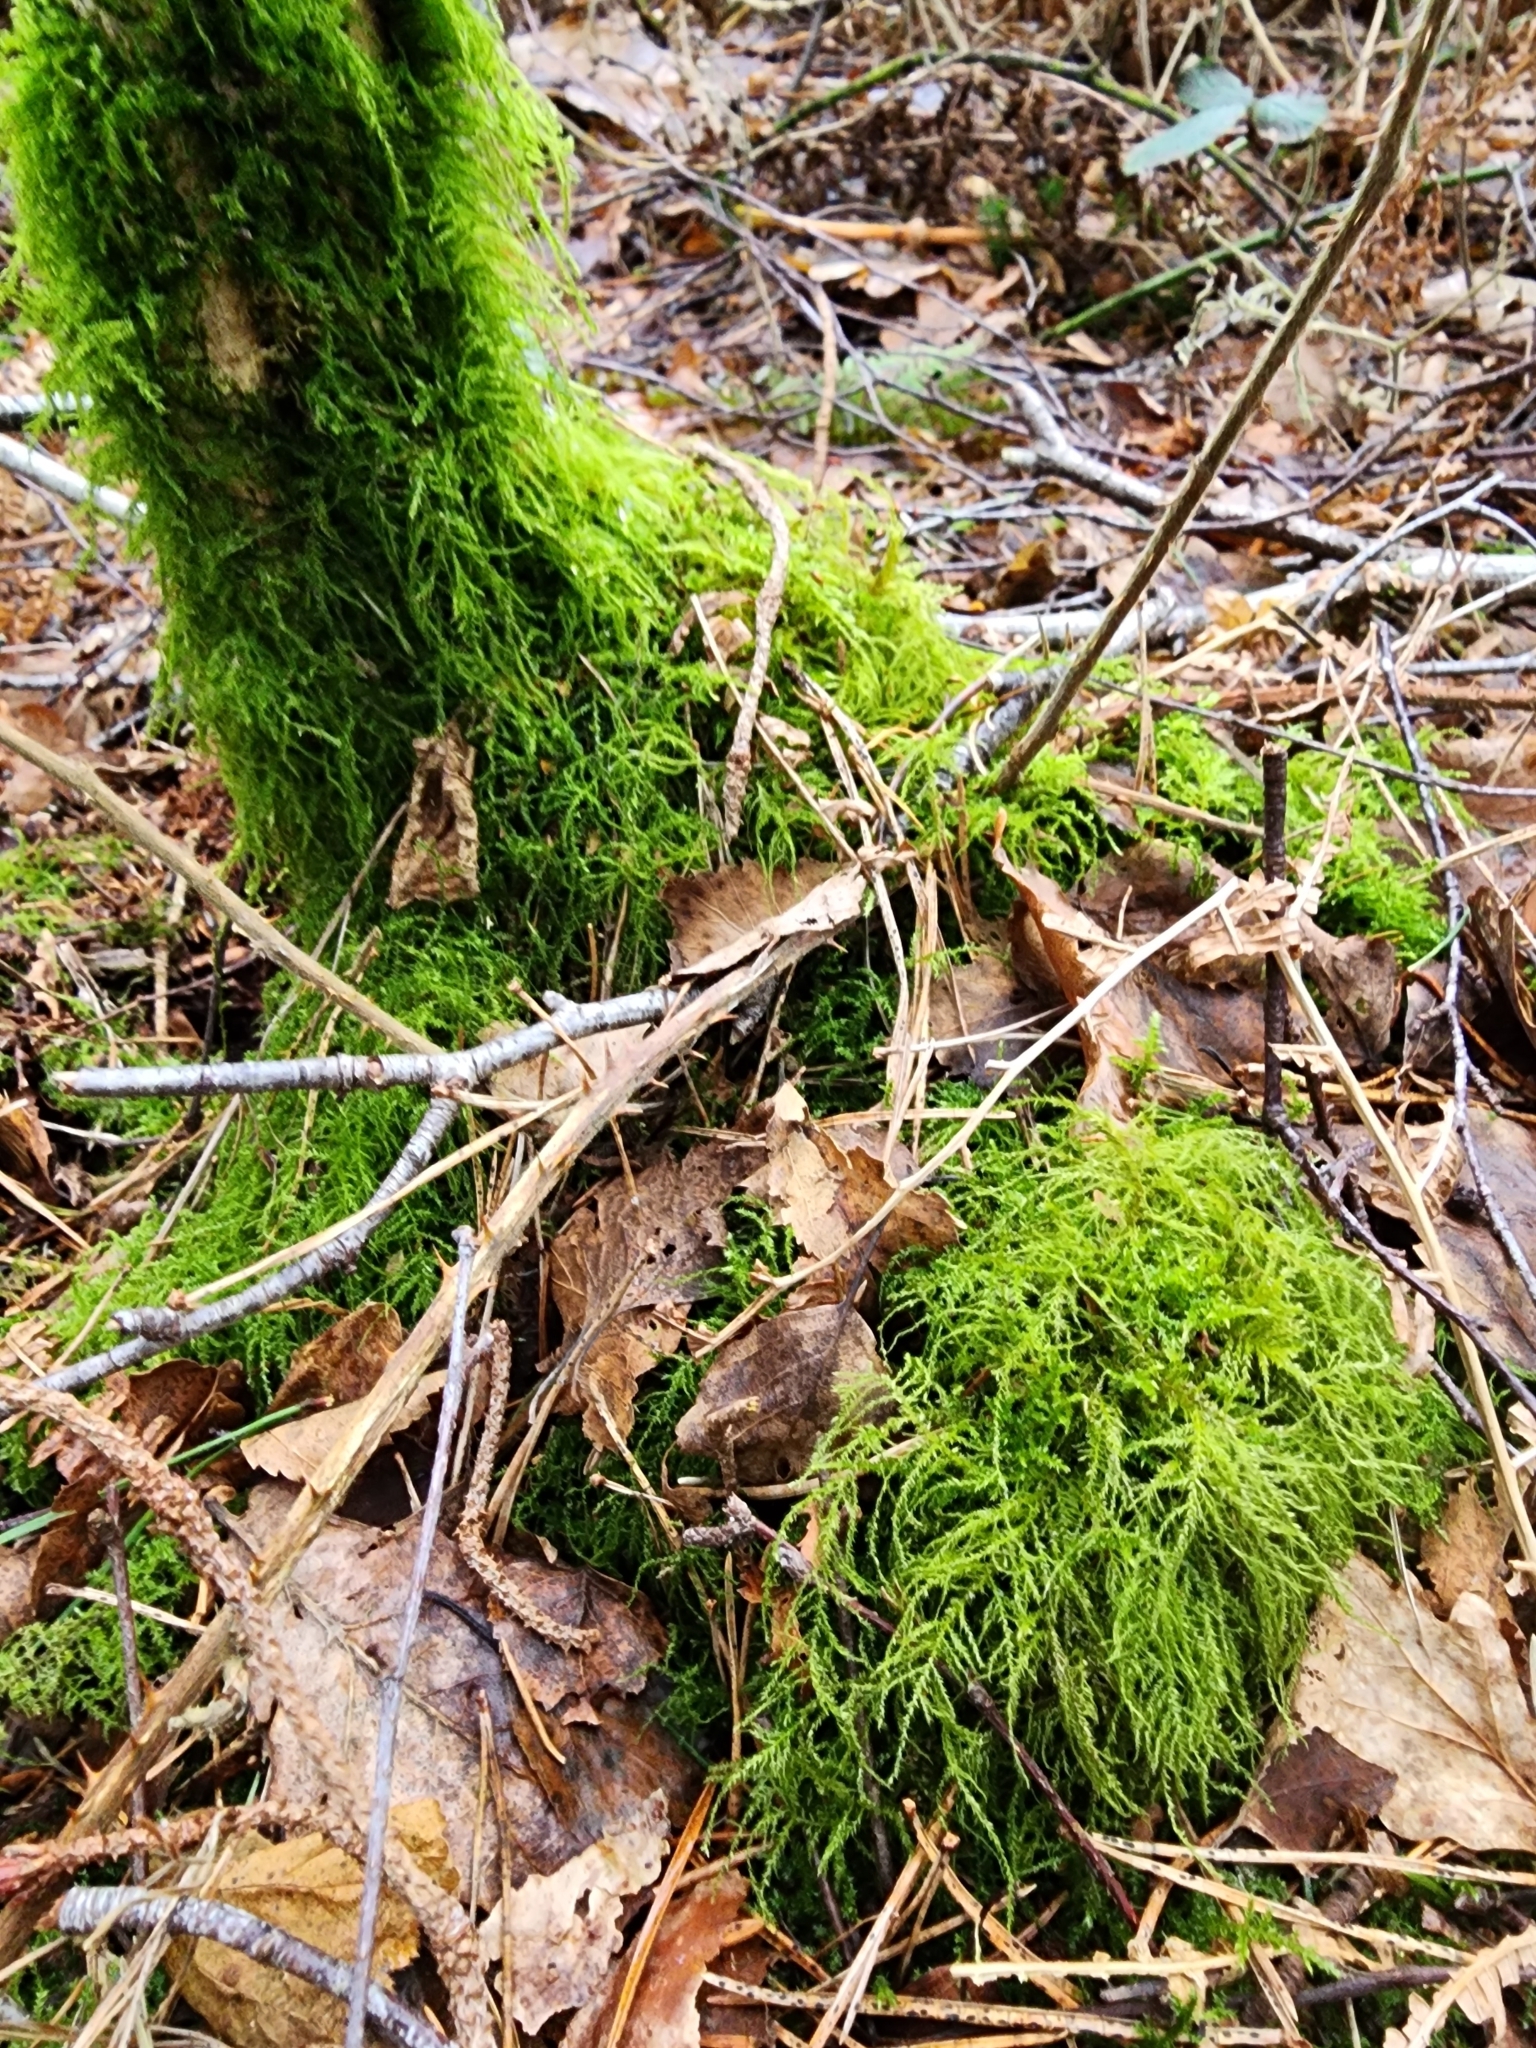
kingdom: Plantae
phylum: Bryophyta
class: Bryopsida
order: Hypnales
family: Brachytheciaceae
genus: Kindbergia
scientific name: Kindbergia praelonga
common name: Slender beaked moss
